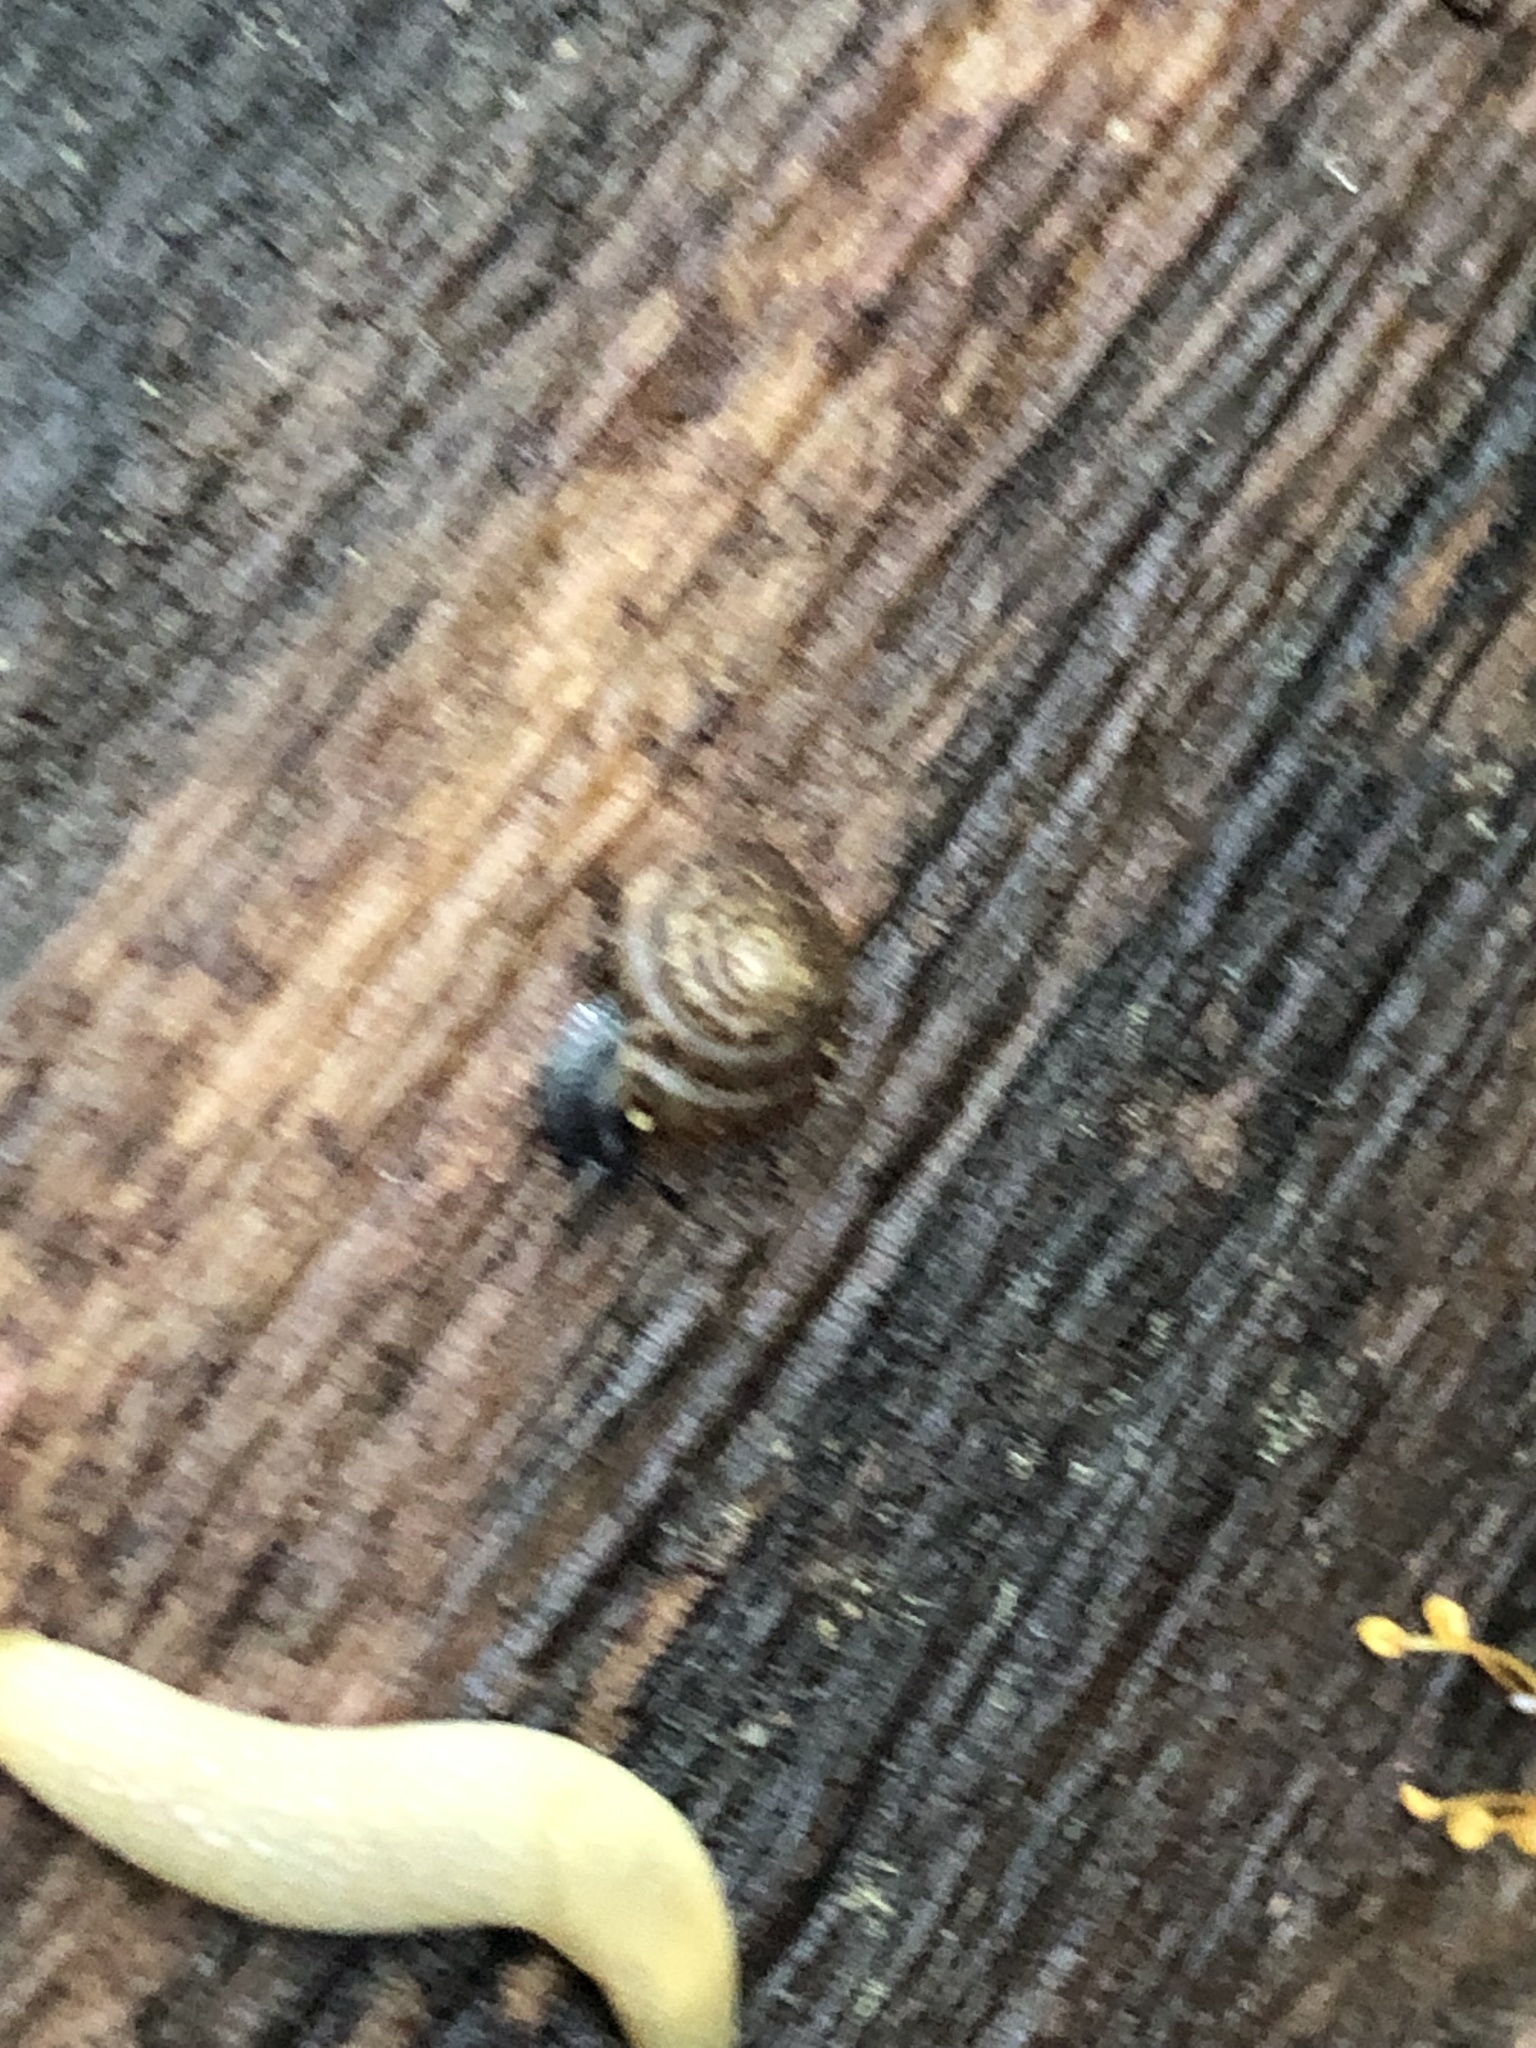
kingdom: Animalia
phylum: Mollusca
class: Gastropoda
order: Stylommatophora
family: Discidae
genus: Discus
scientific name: Discus rotundatus
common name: Rounded snail
